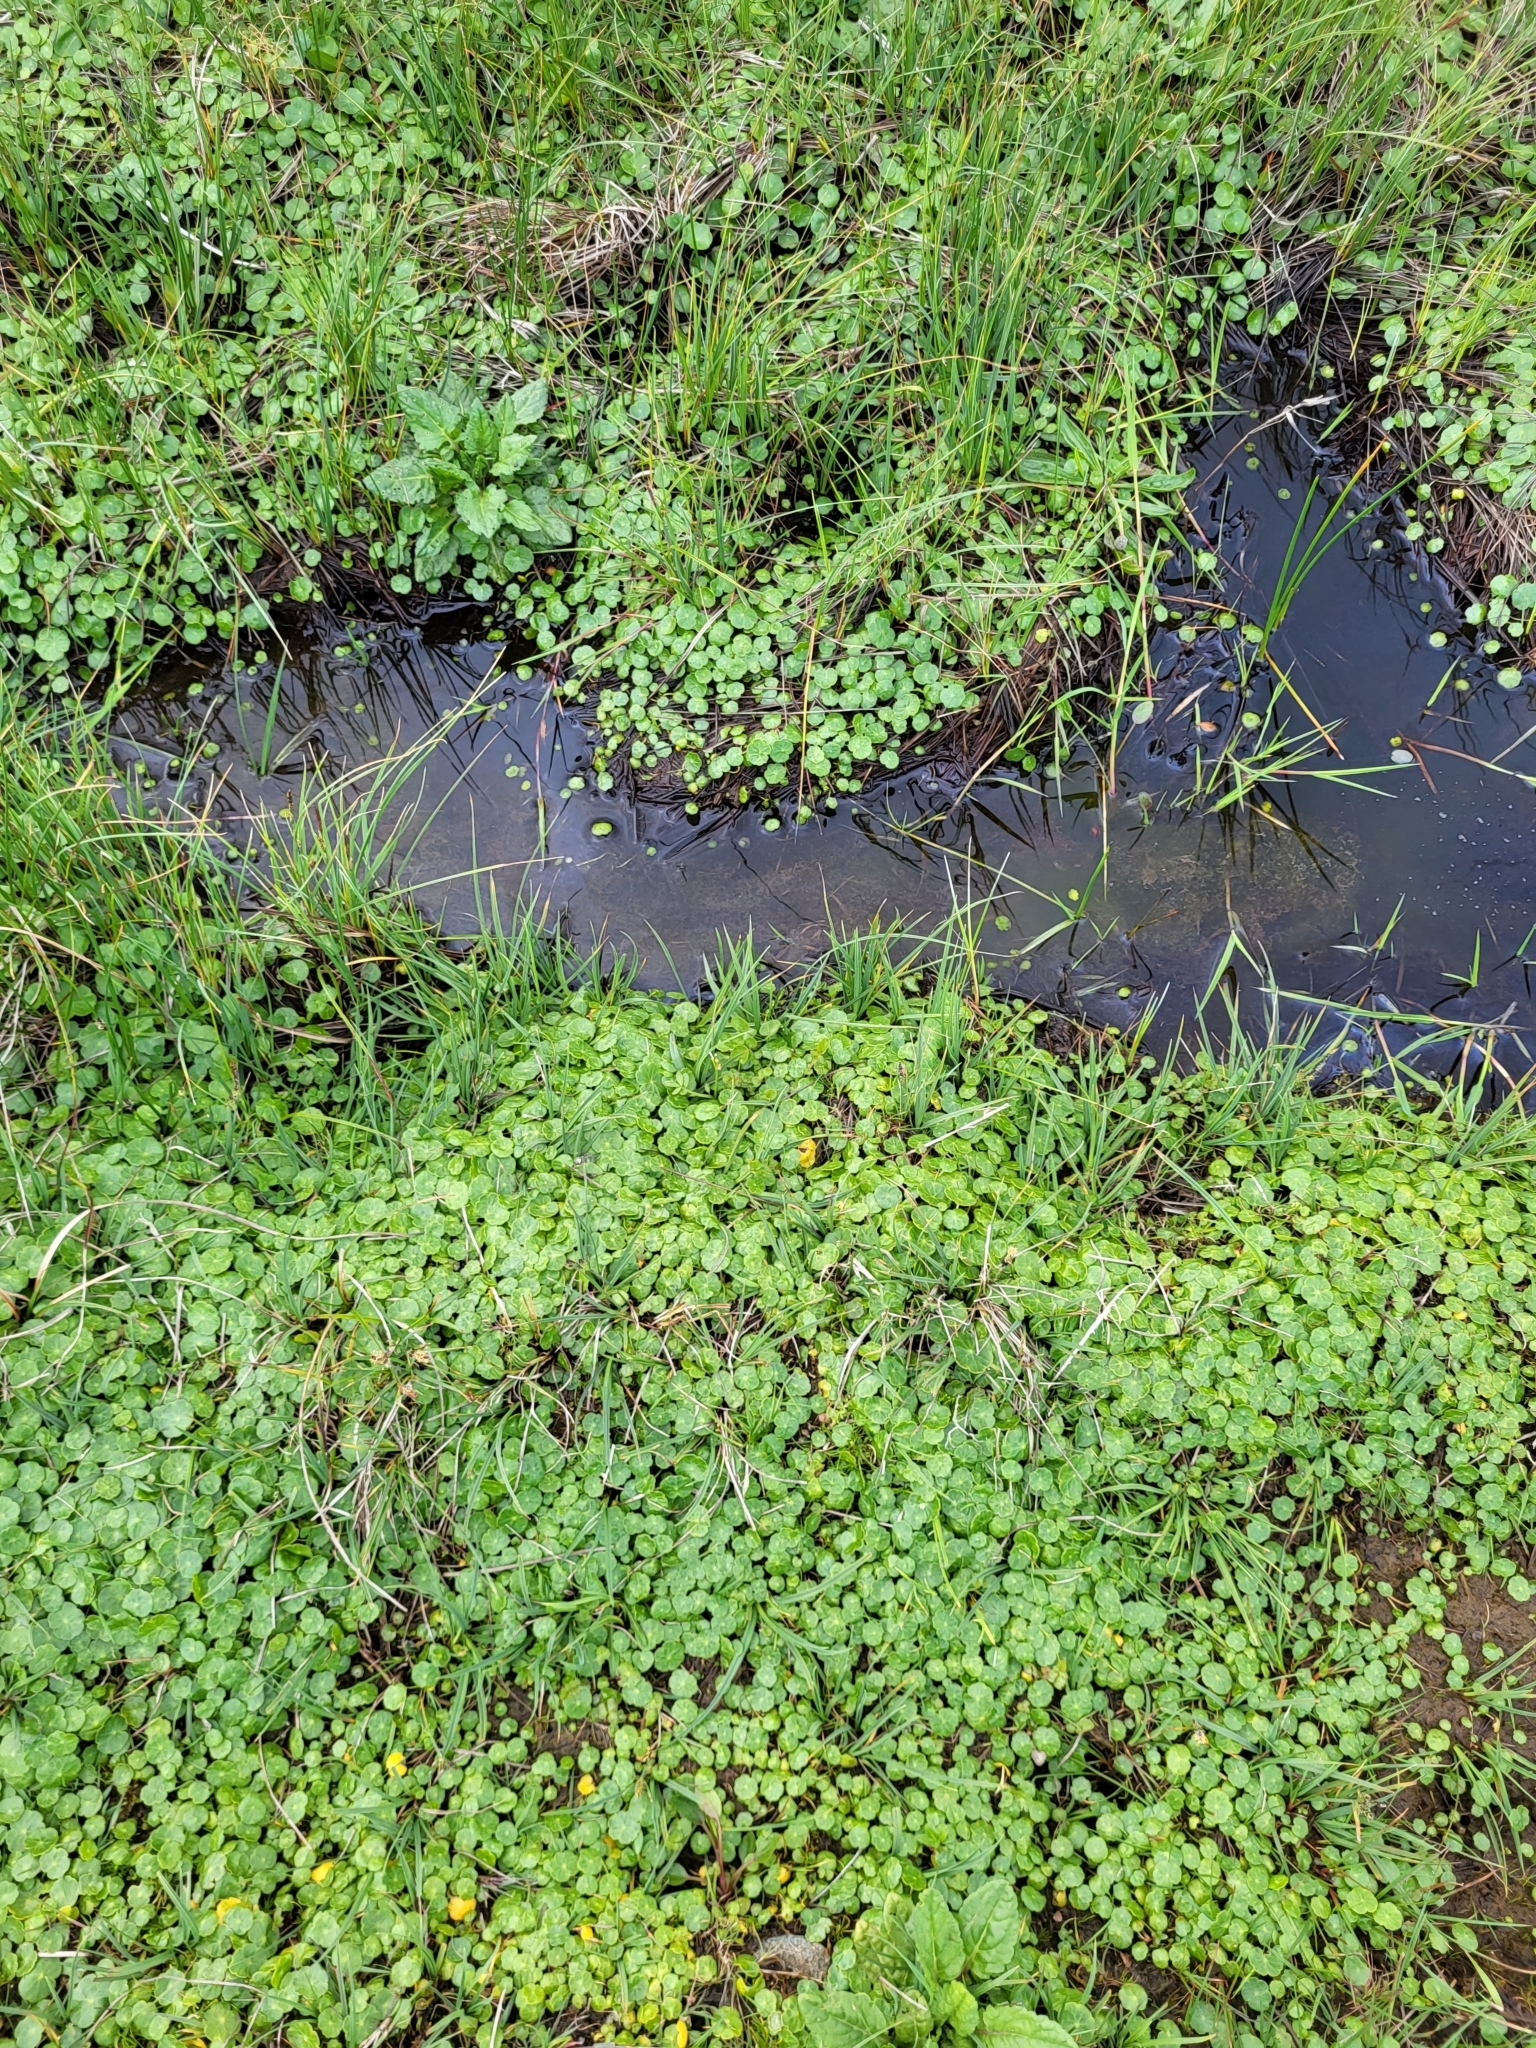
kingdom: Plantae
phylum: Tracheophyta
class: Magnoliopsida
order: Apiales
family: Araliaceae
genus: Hydrocotyle
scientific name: Hydrocotyle vulgaris
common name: Marsh pennywort
